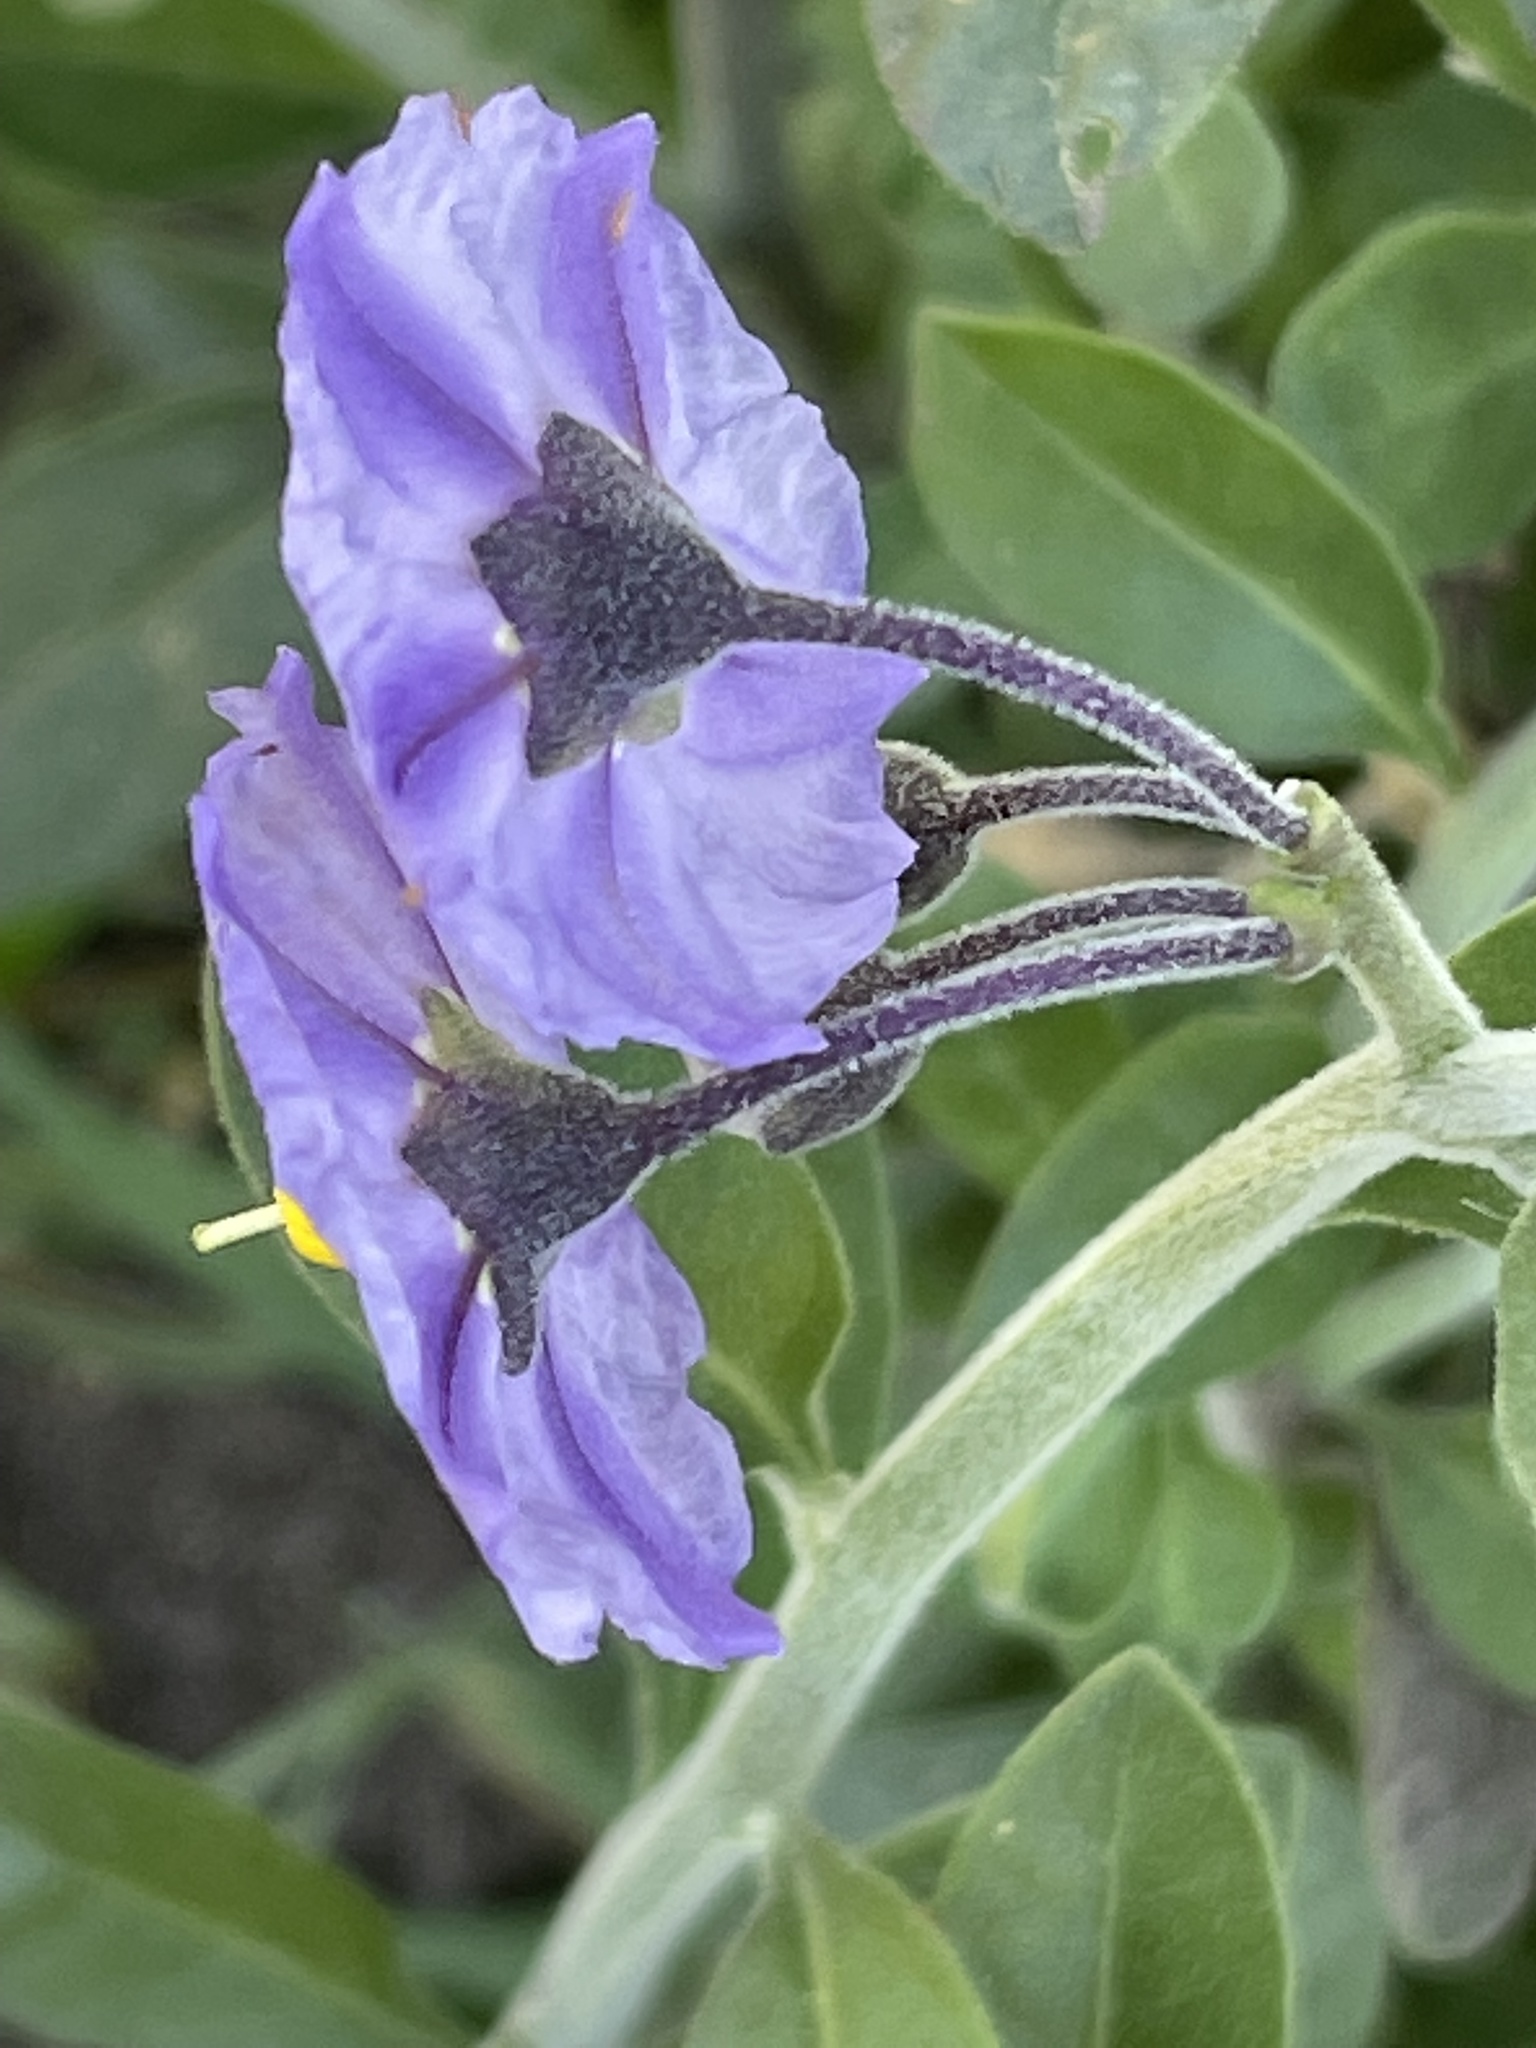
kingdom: Plantae
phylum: Tracheophyta
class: Magnoliopsida
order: Solanales
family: Solanaceae
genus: Solanum
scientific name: Solanum umbelliferum
